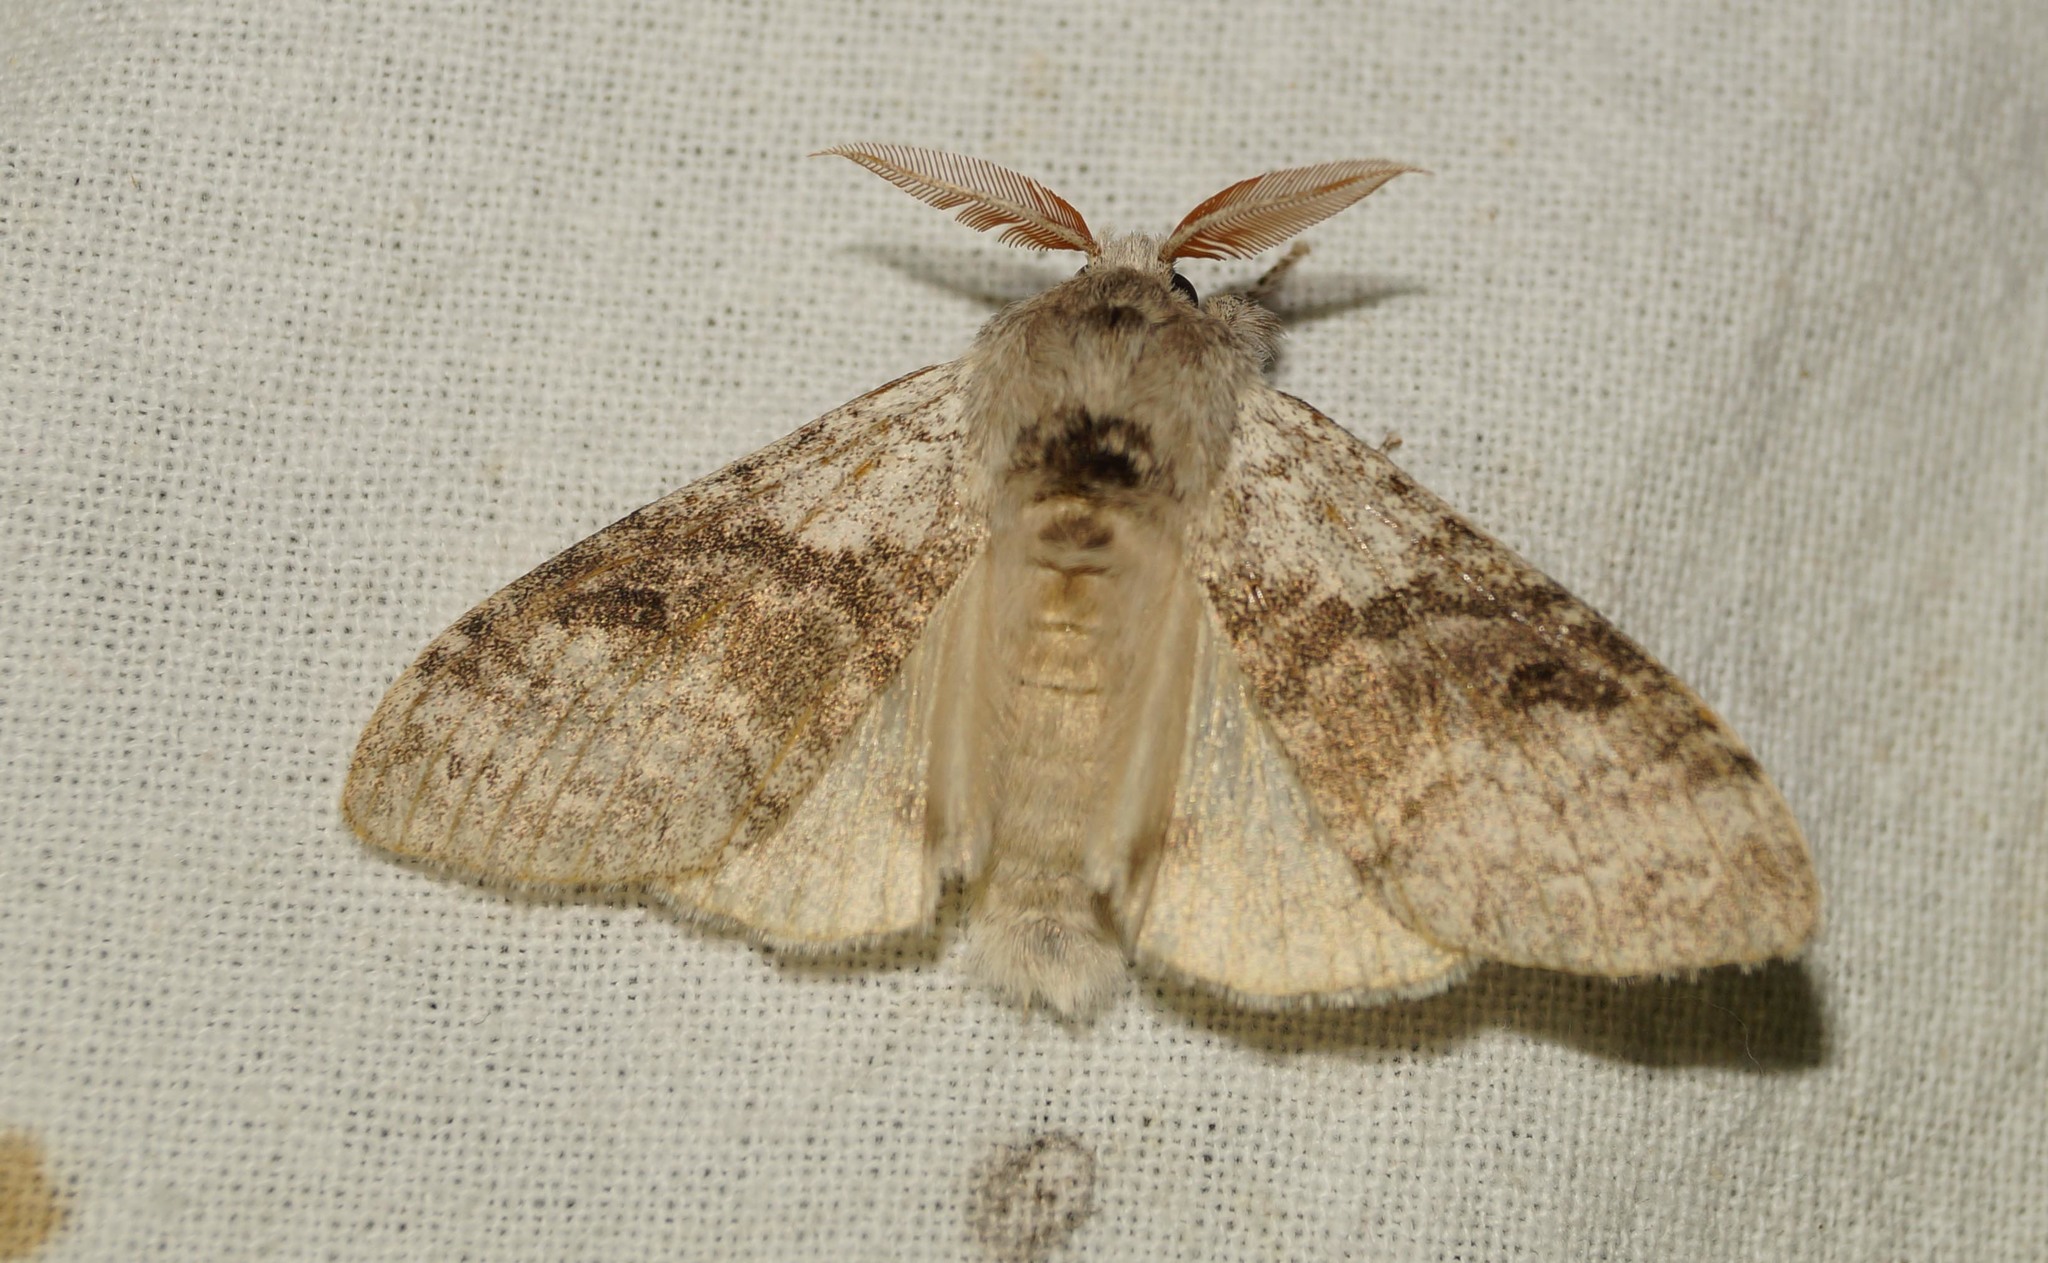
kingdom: Animalia
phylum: Arthropoda
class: Insecta
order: Lepidoptera
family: Erebidae
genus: Calliteara
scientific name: Calliteara pudibunda
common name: Pale tussock
